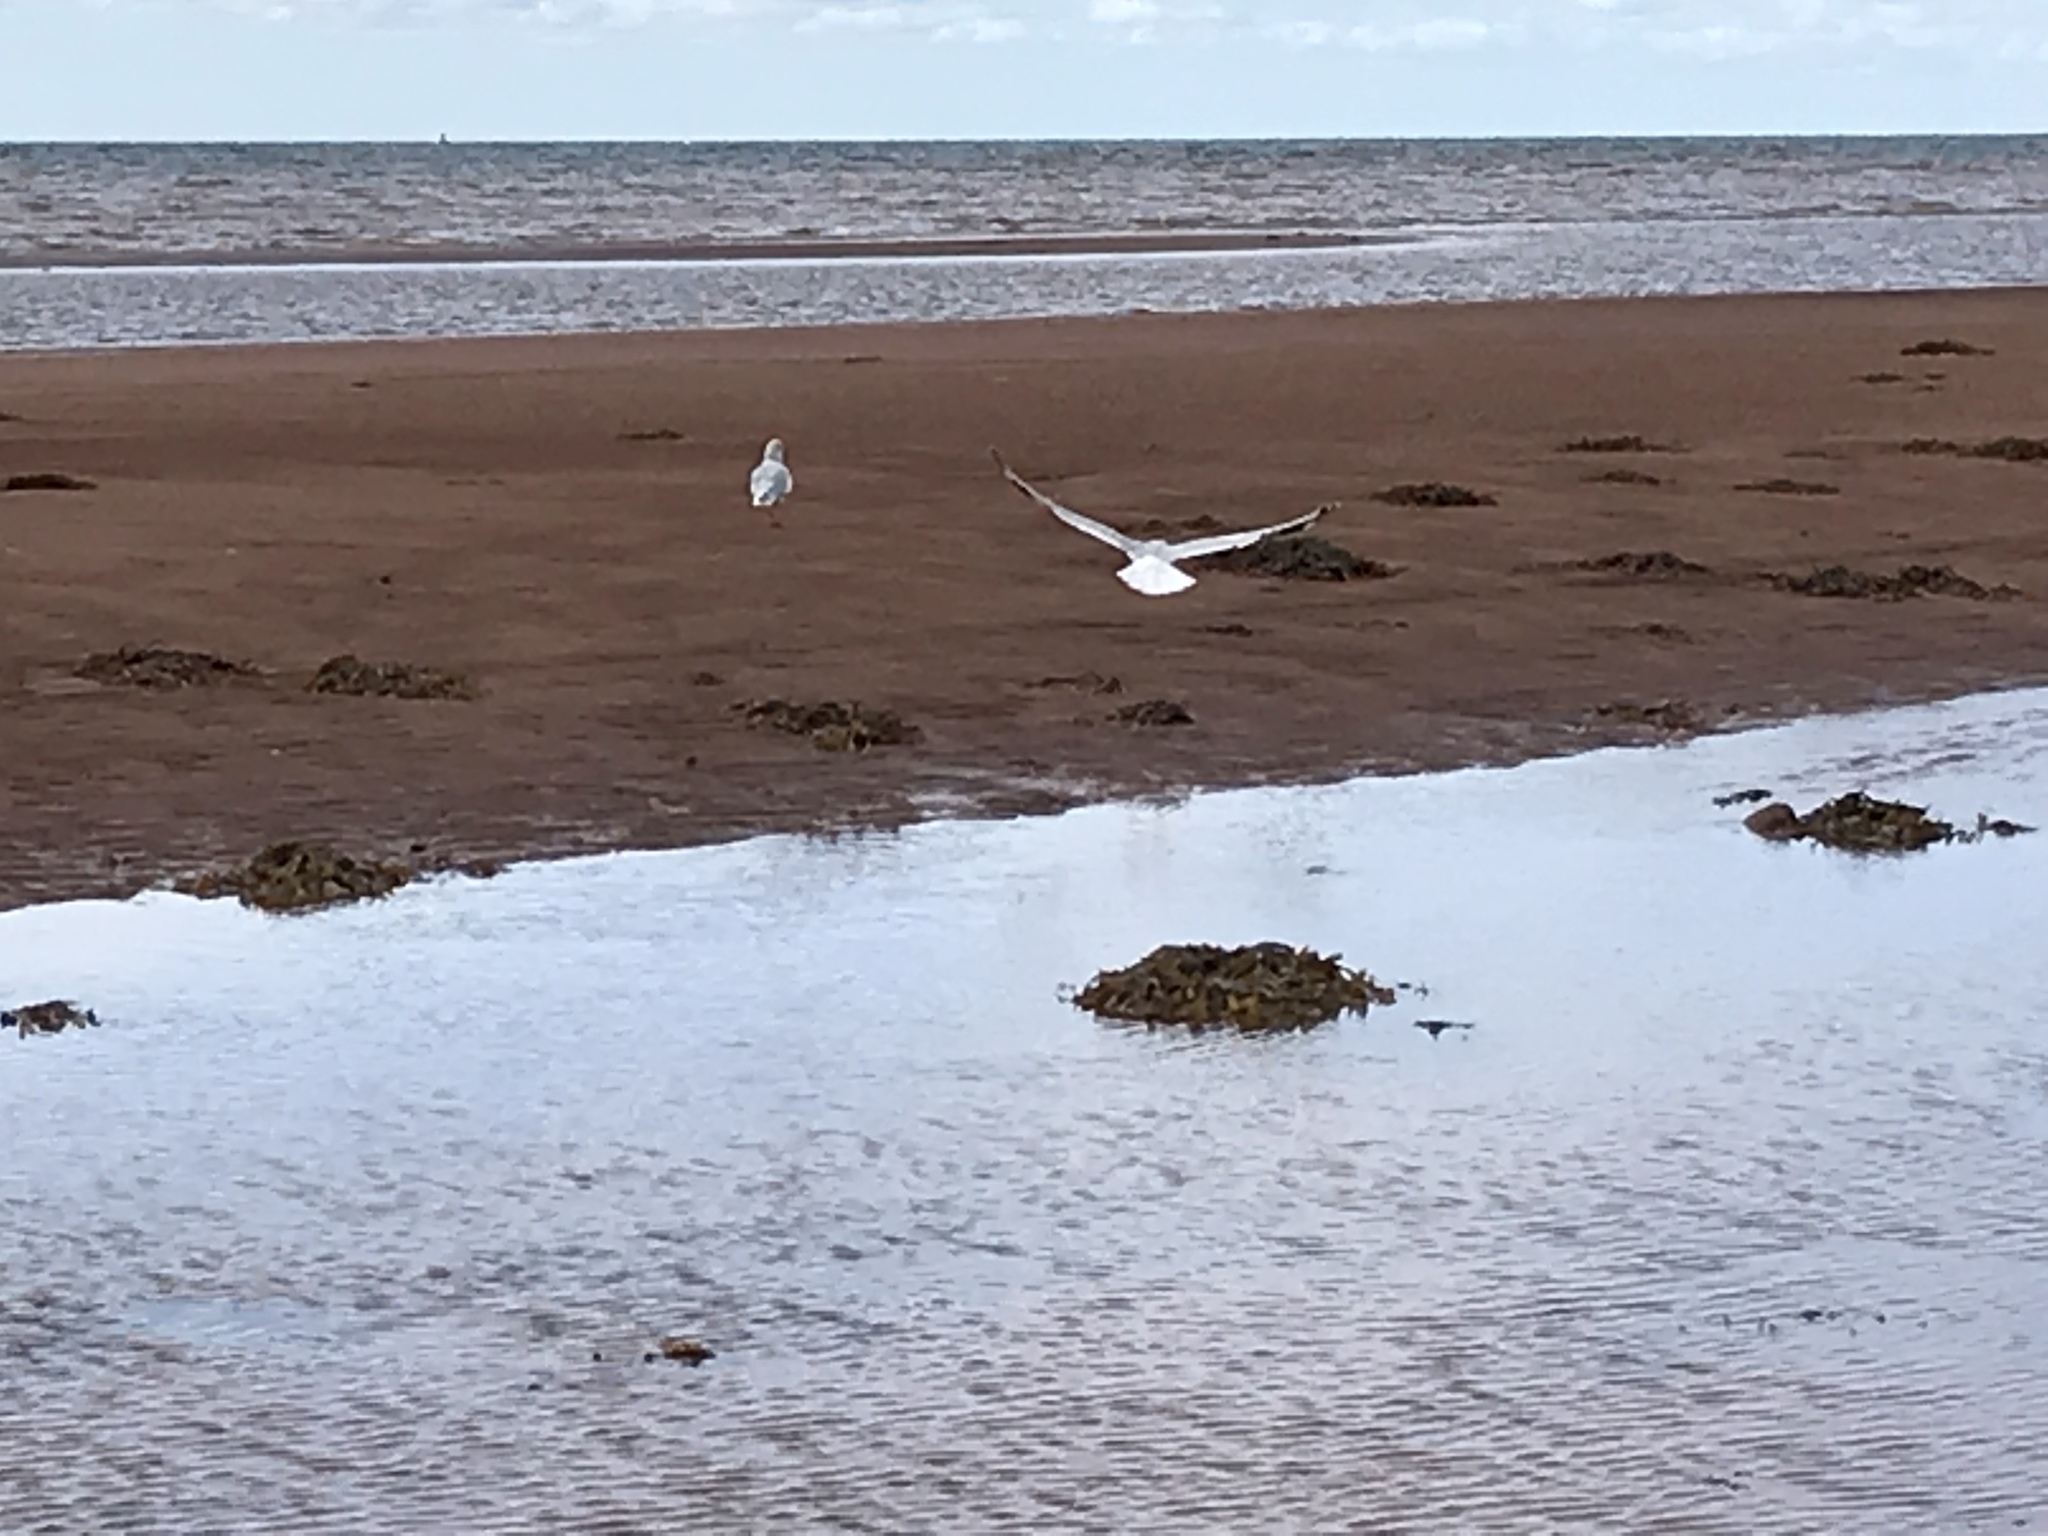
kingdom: Animalia
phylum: Chordata
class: Aves
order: Charadriiformes
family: Laridae
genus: Larus
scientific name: Larus
